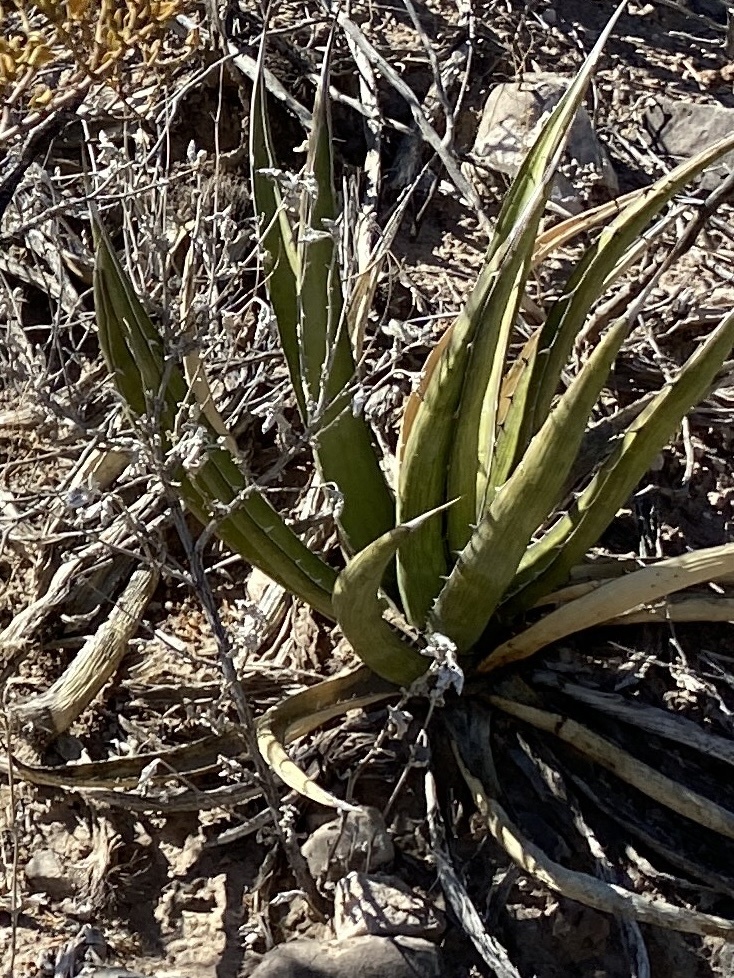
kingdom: Plantae
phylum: Tracheophyta
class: Liliopsida
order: Asparagales
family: Asparagaceae
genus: Agave
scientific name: Agave lechuguilla
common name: Lecheguilla agave
